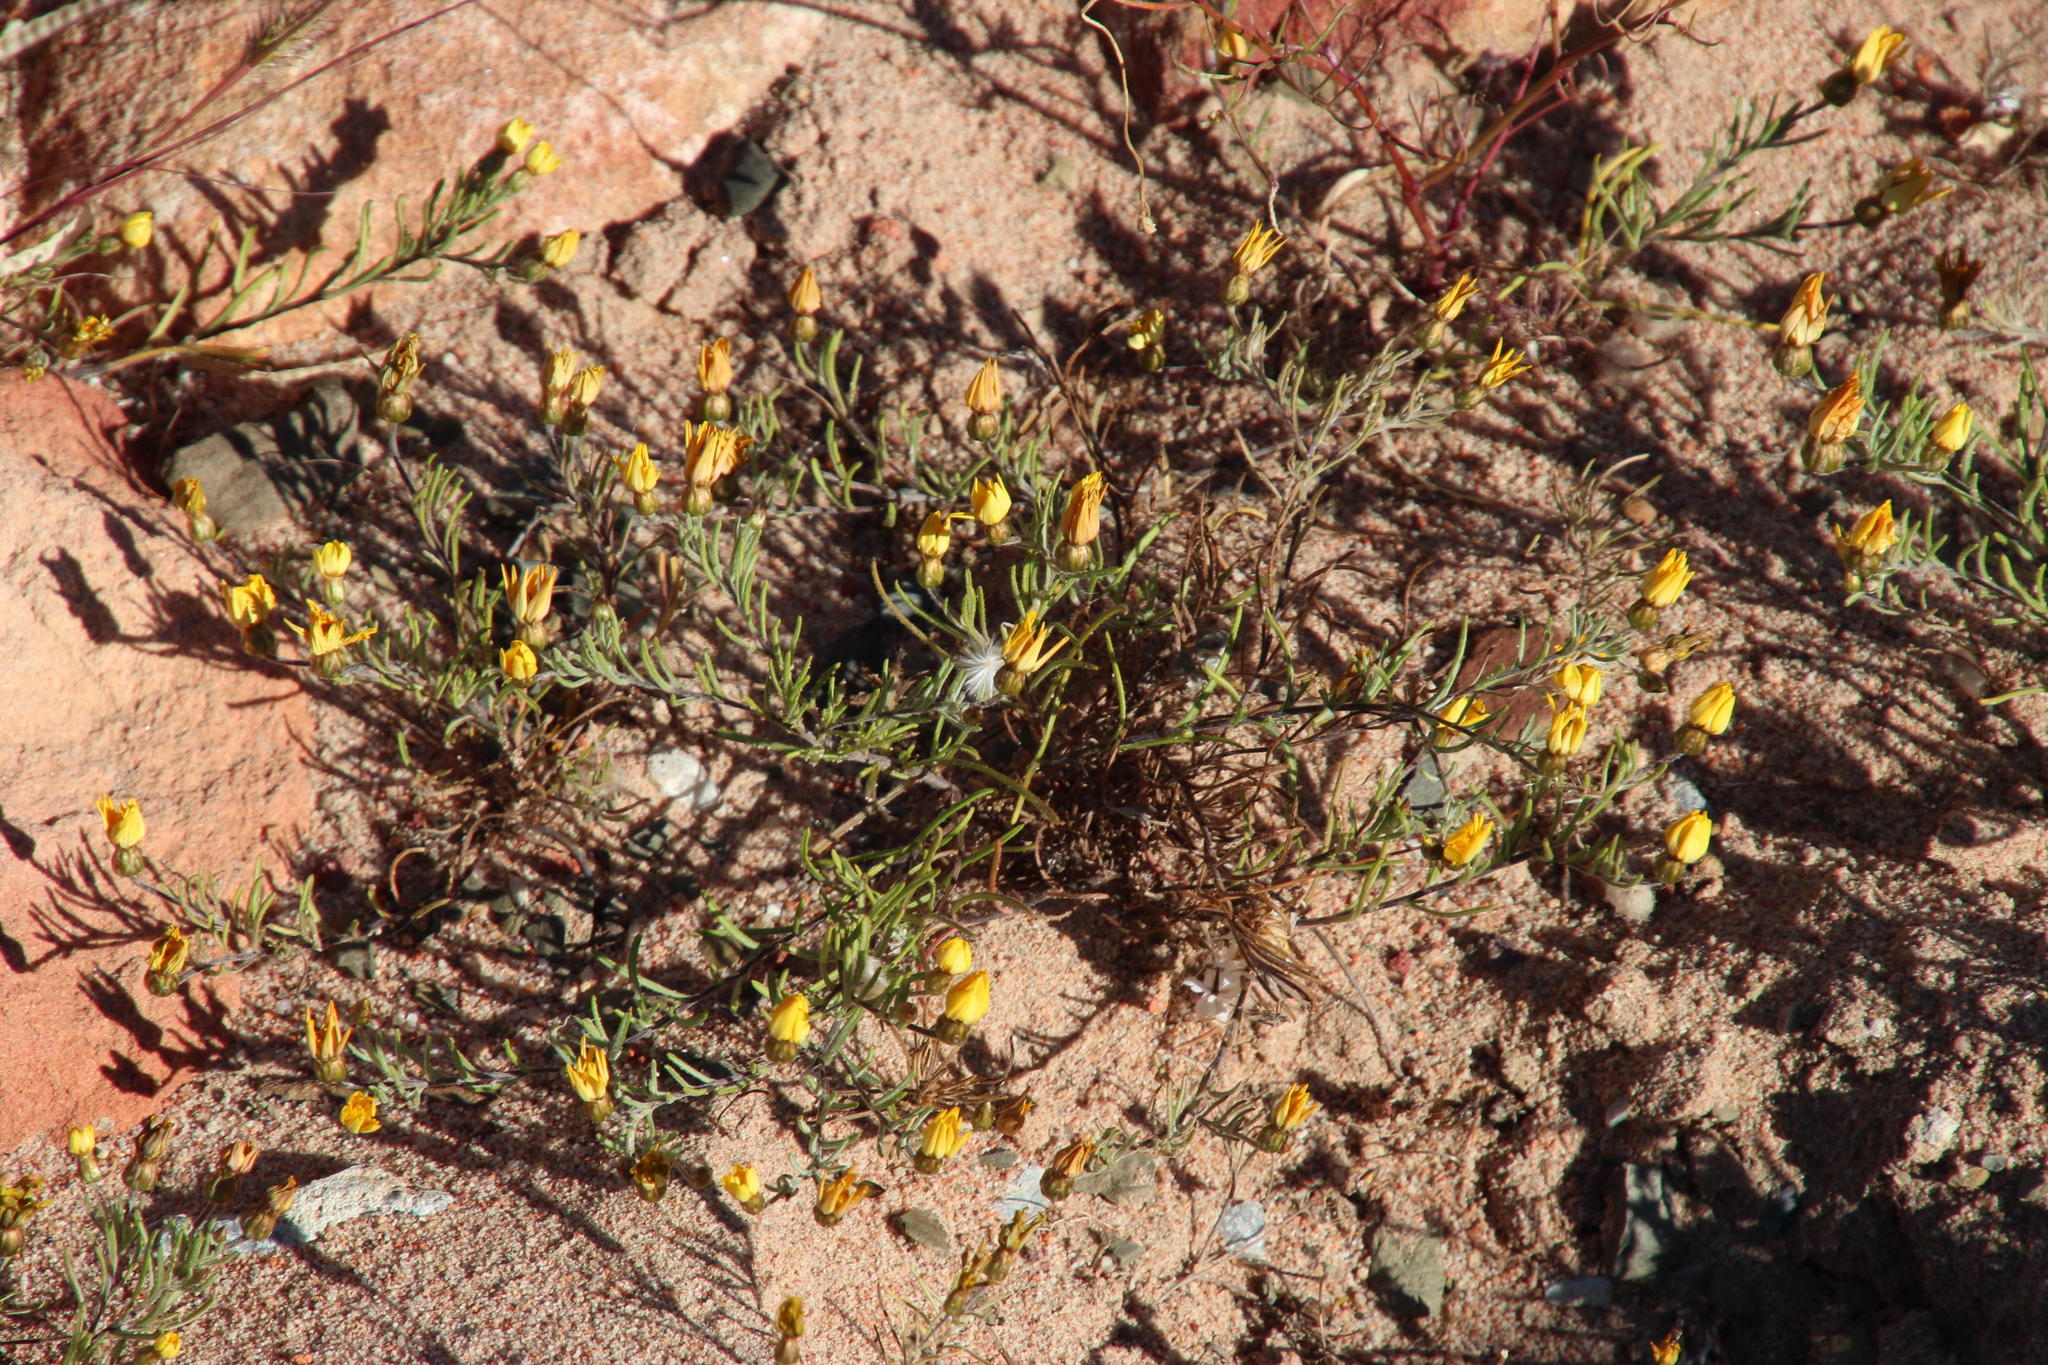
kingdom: Plantae
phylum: Tracheophyta
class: Magnoliopsida
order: Asterales
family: Asteraceae
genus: Rhynchopsidium
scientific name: Rhynchopsidium pumilum
